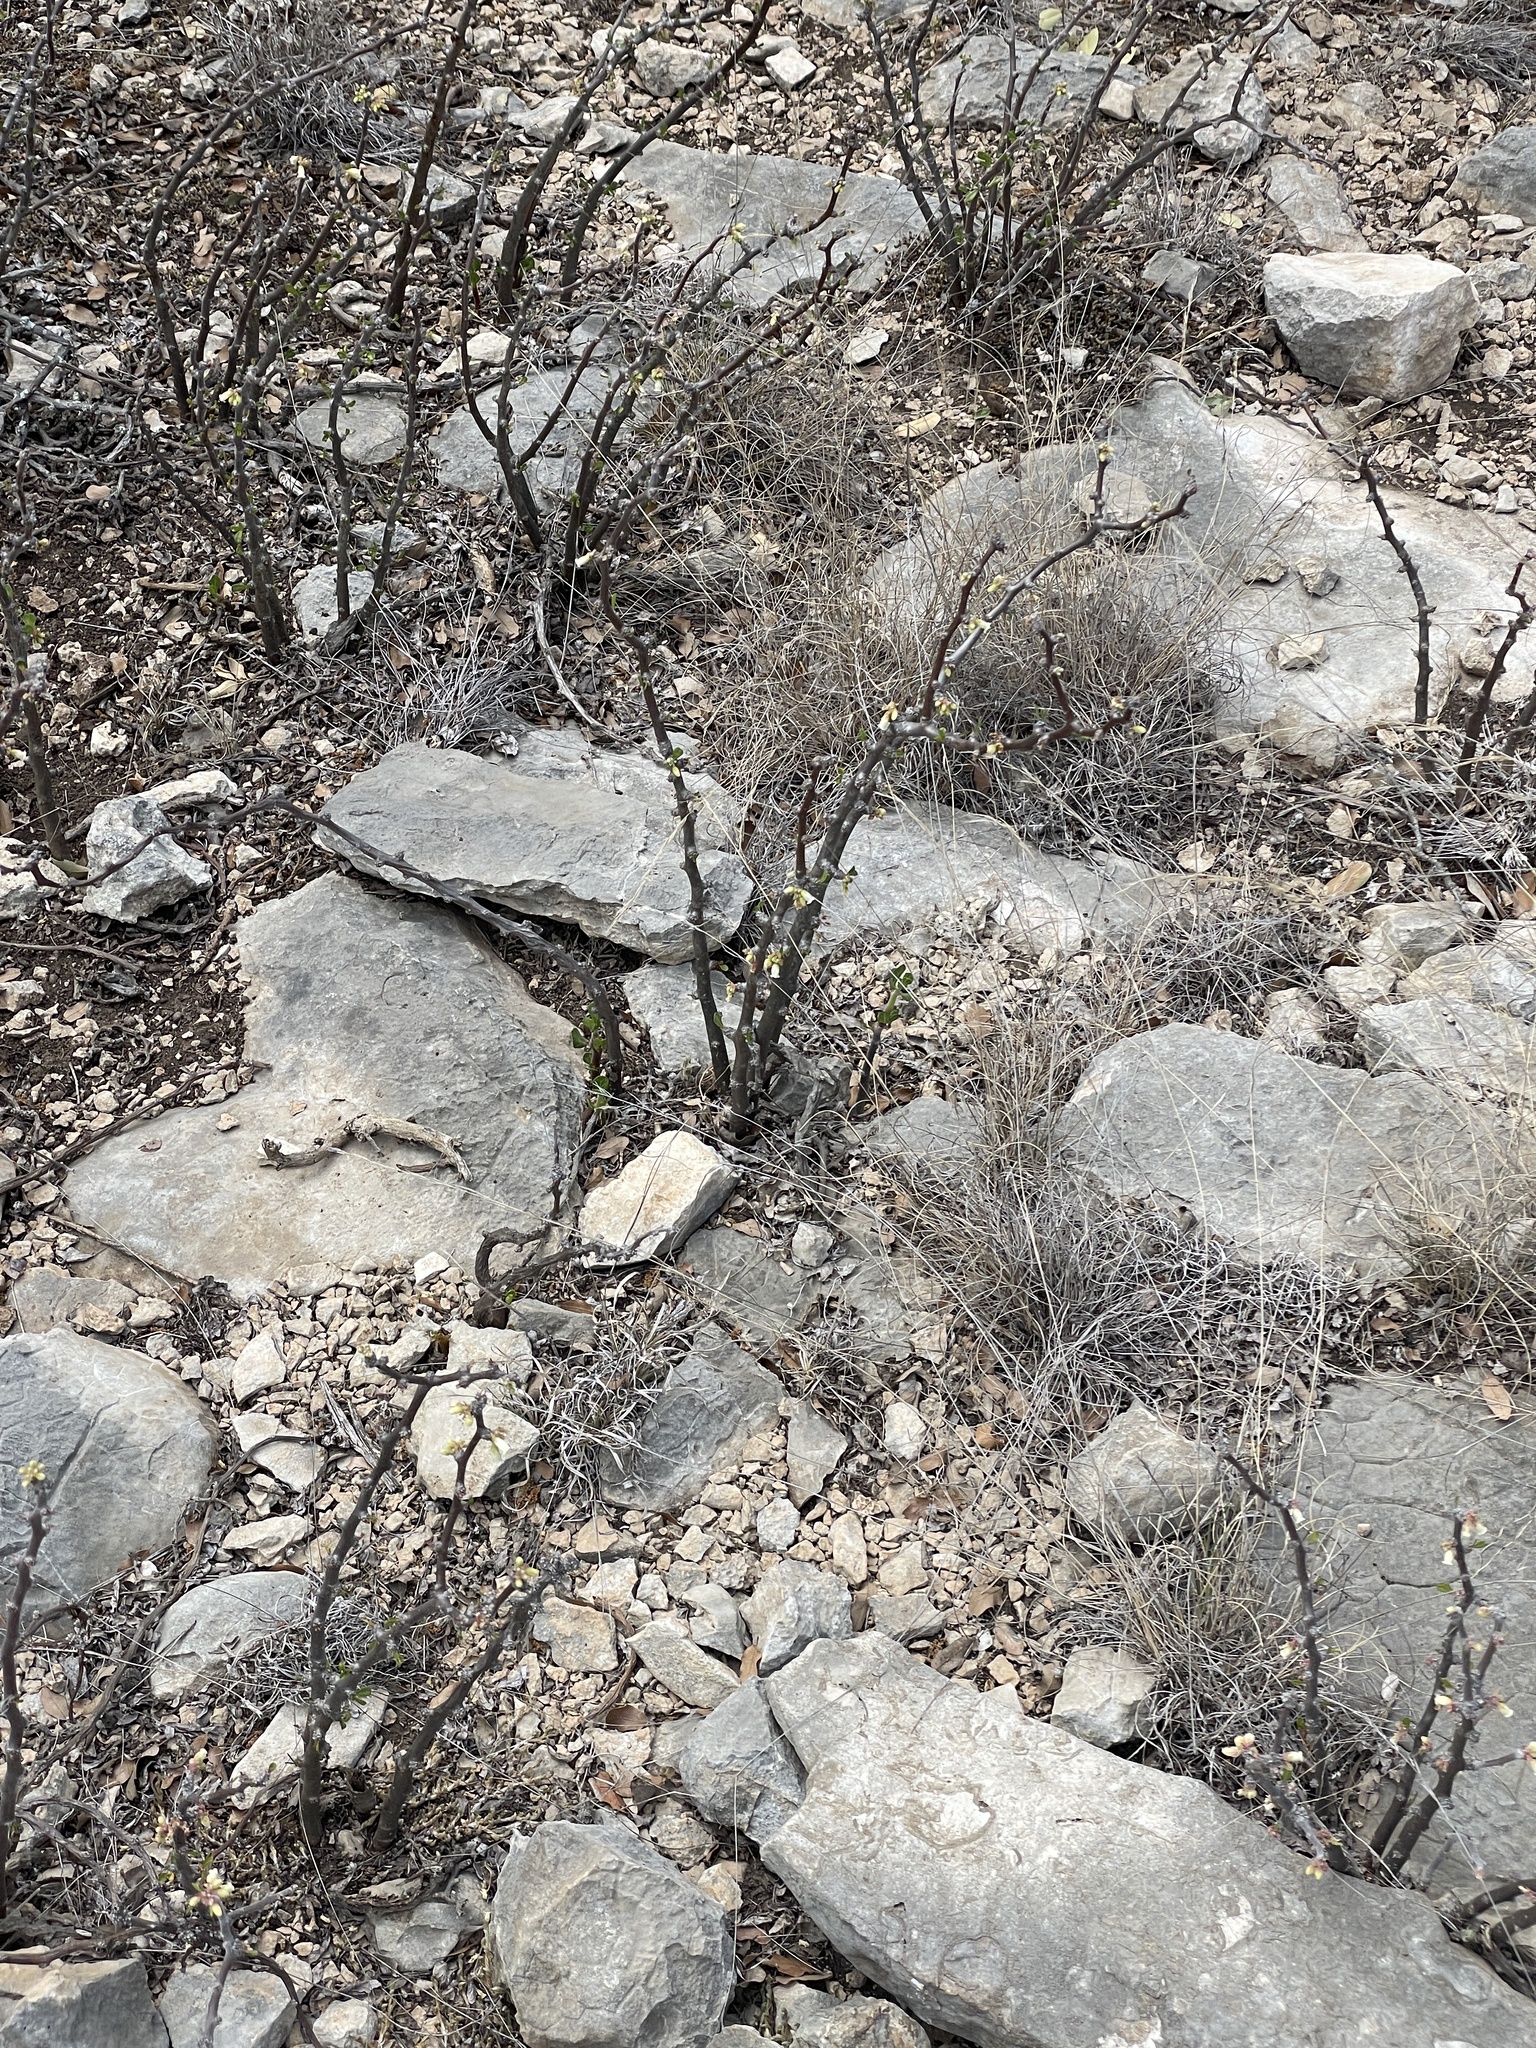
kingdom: Plantae
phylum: Tracheophyta
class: Magnoliopsida
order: Malpighiales
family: Euphorbiaceae
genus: Jatropha
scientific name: Jatropha dioica
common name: Leatherstem
